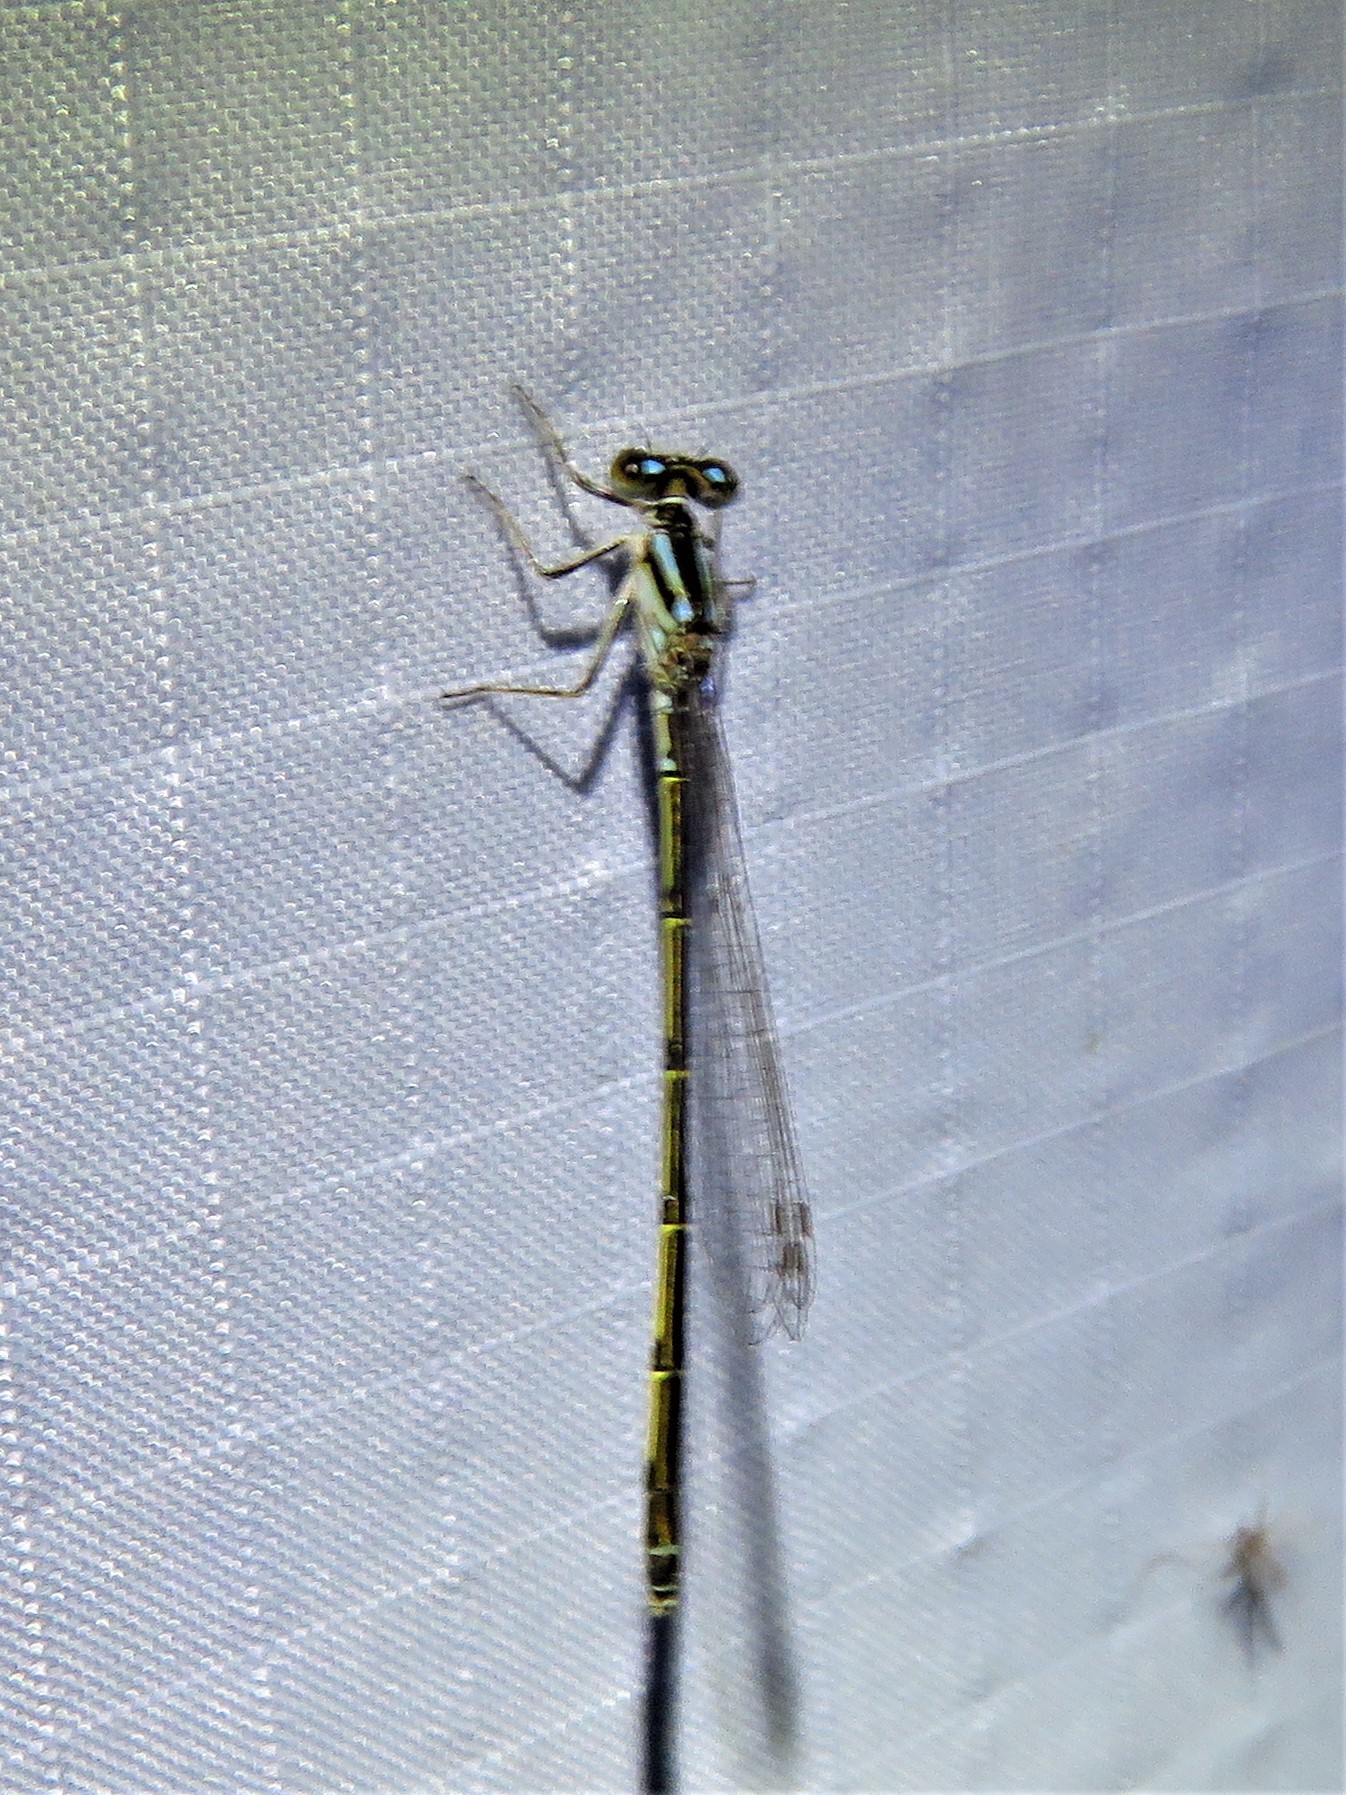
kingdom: Animalia
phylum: Arthropoda
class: Insecta
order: Odonata
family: Coenagrionidae
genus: Ischnura
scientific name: Ischnura posita
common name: Fragile forktail
